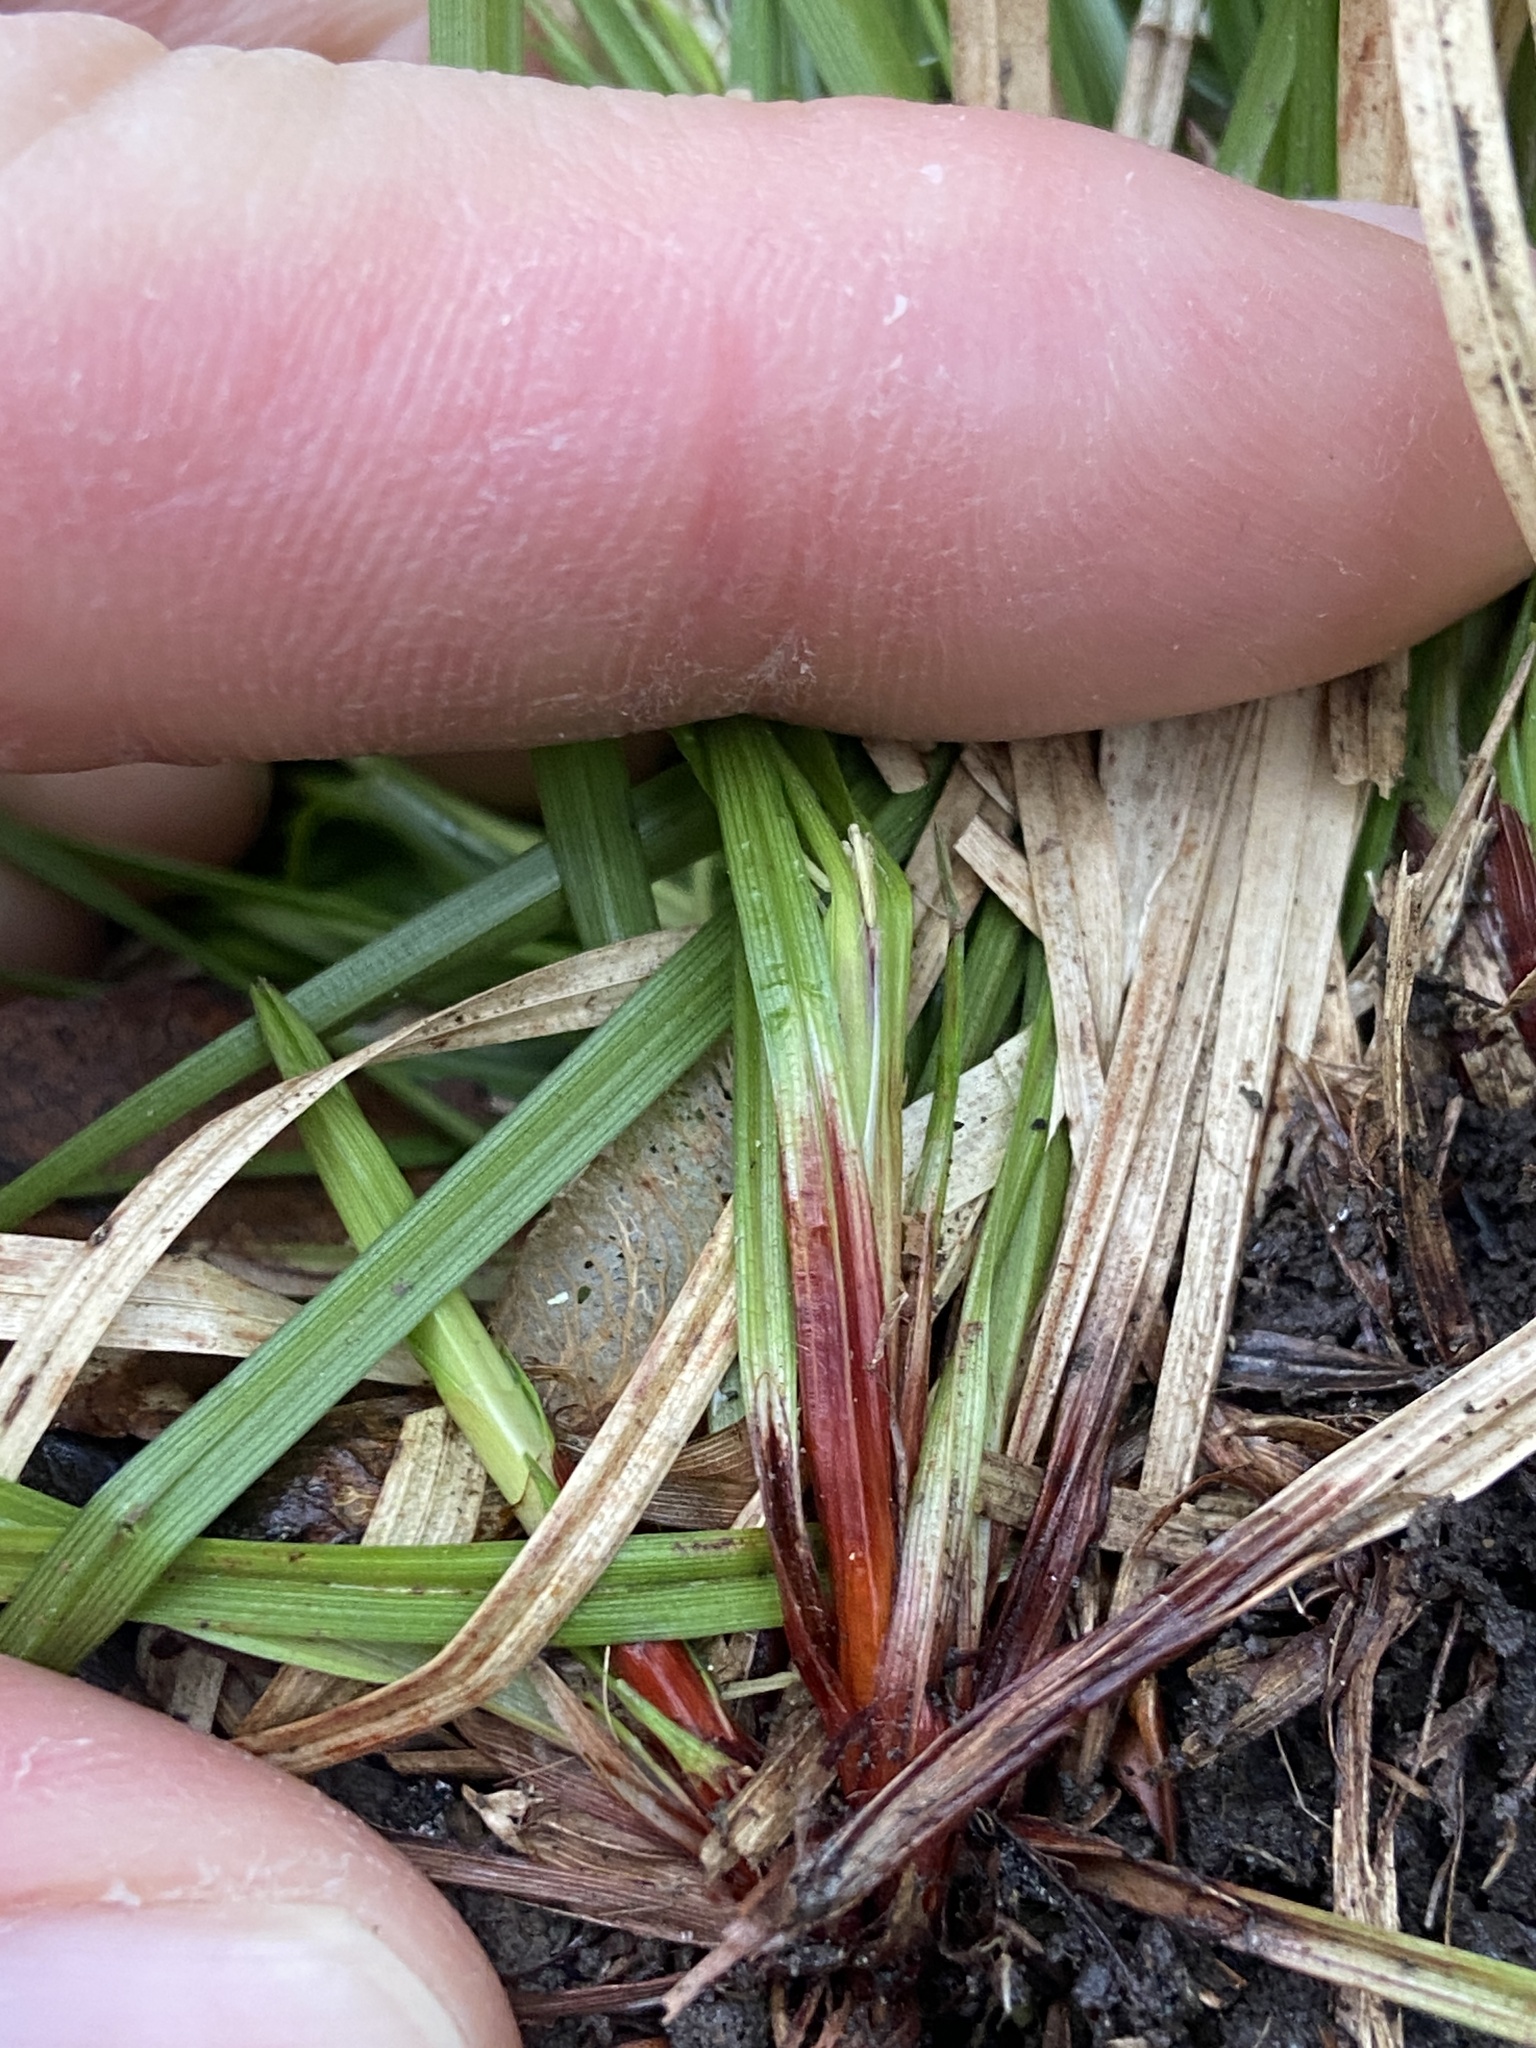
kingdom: Plantae
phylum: Tracheophyta
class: Liliopsida
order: Poales
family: Cyperaceae
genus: Carex
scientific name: Carex pedunculata
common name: Pedunculate sedge
